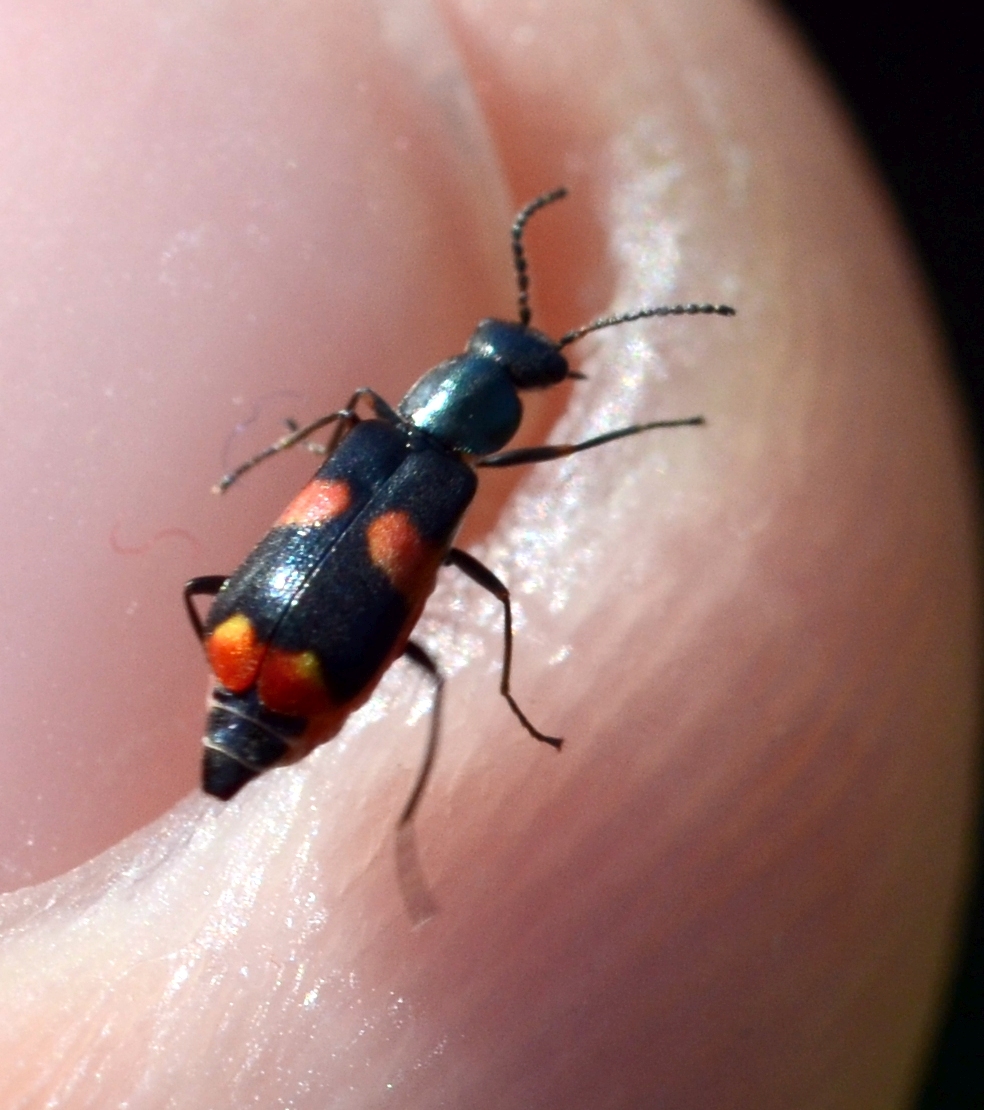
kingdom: Animalia
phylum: Arthropoda
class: Insecta
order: Coleoptera
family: Melyridae
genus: Anthocomus
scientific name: Anthocomus fasciatus
